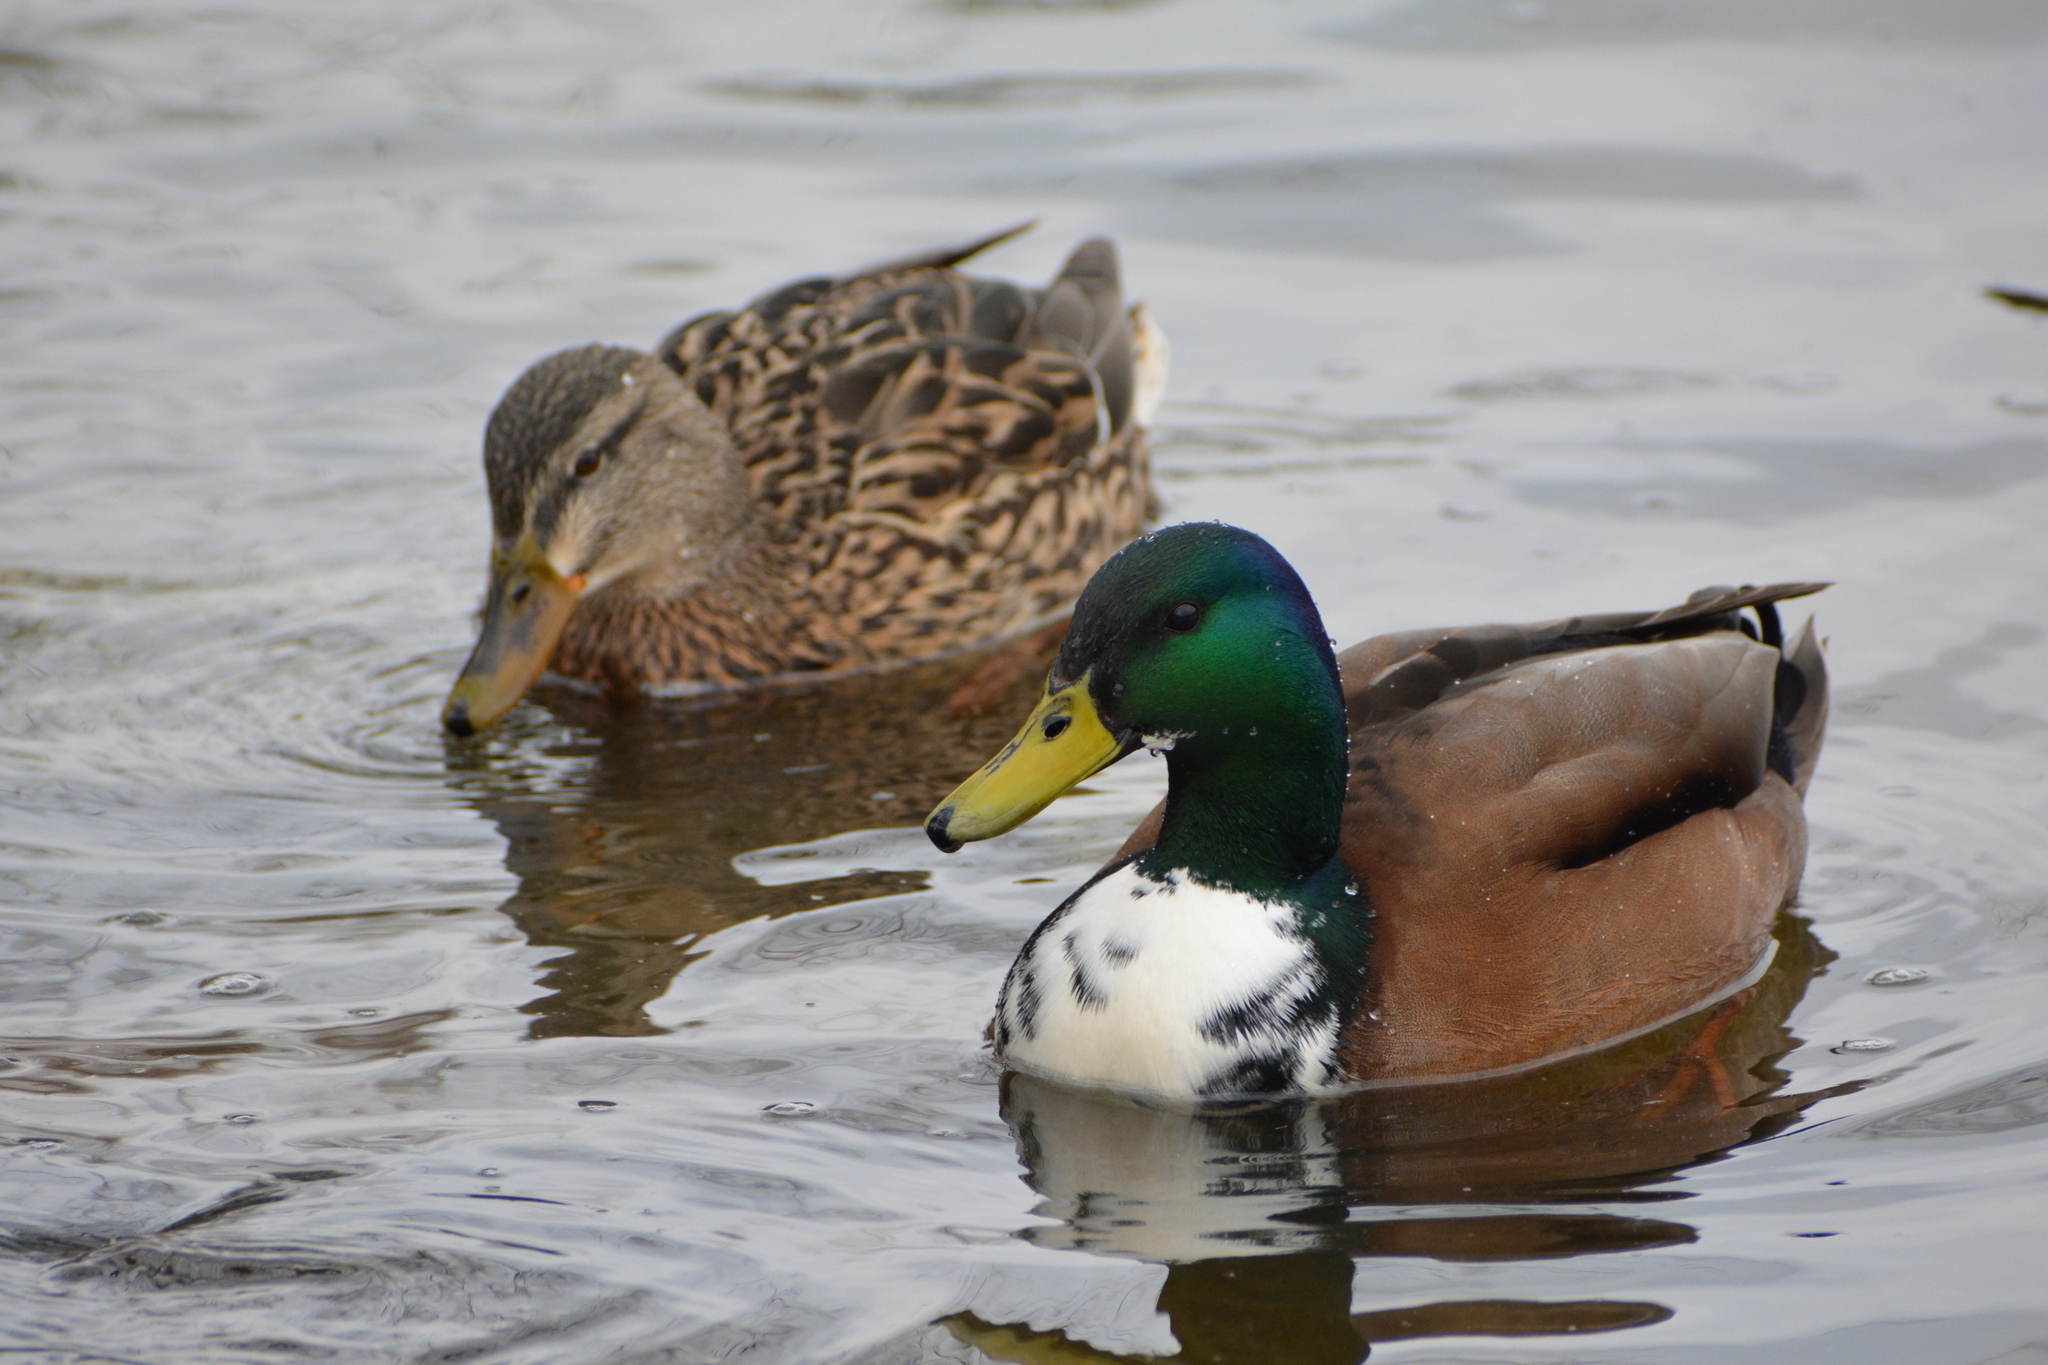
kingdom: Animalia
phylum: Chordata
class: Aves
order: Anseriformes
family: Anatidae
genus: Anas
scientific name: Anas platyrhynchos
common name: Mallard
